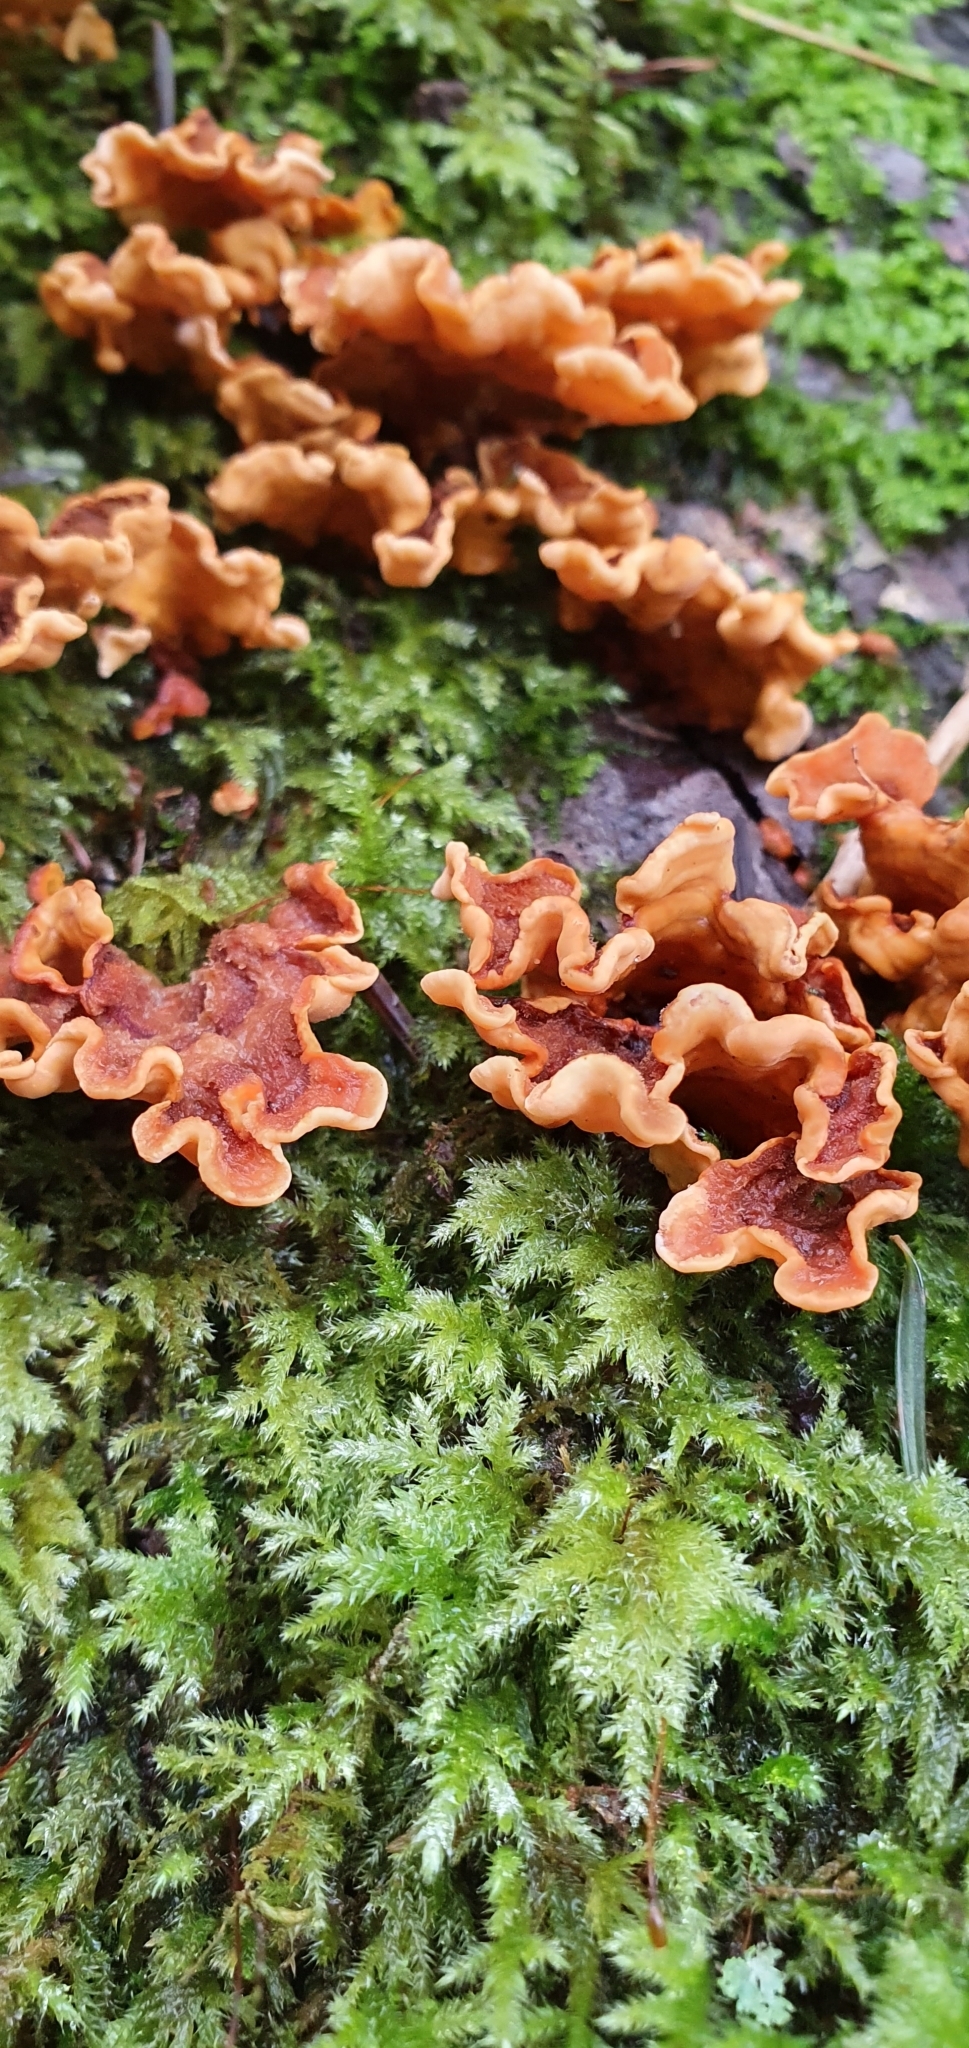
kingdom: Fungi
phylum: Basidiomycota
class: Agaricomycetes
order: Russulales
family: Stereaceae
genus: Stereum
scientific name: Stereum hirsutum
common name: Hairy curtain crust
